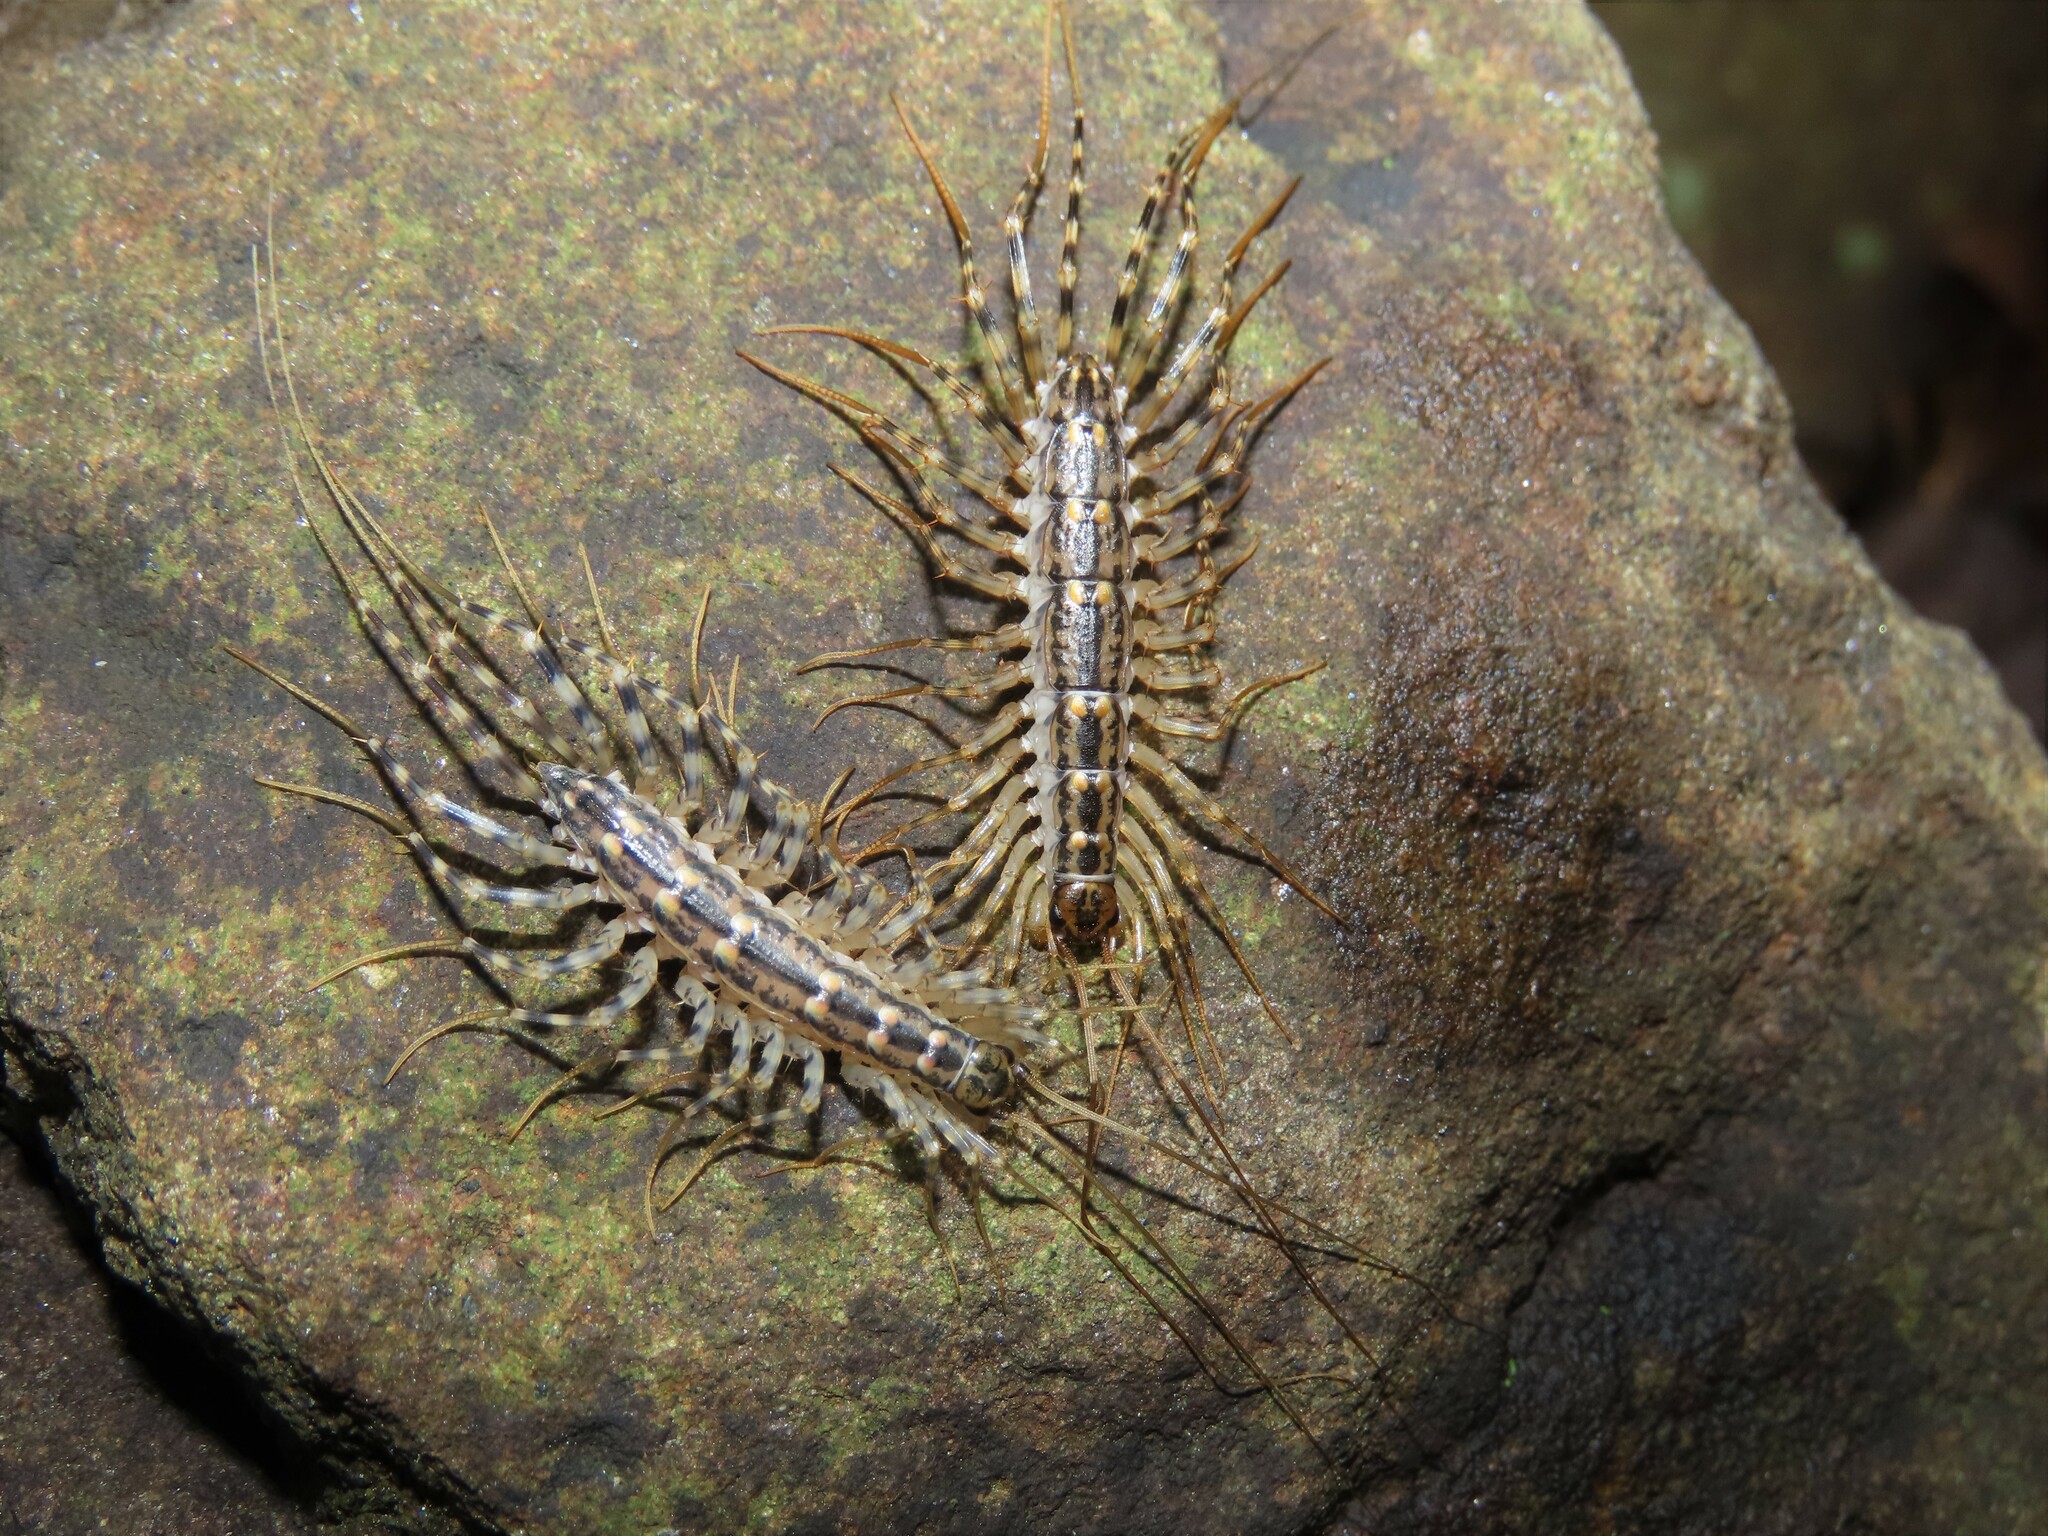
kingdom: Animalia
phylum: Arthropoda
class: Chilopoda
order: Scutigeromorpha
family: Scutigeridae
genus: Thereuonema
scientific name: Thereuonema tuberculata
